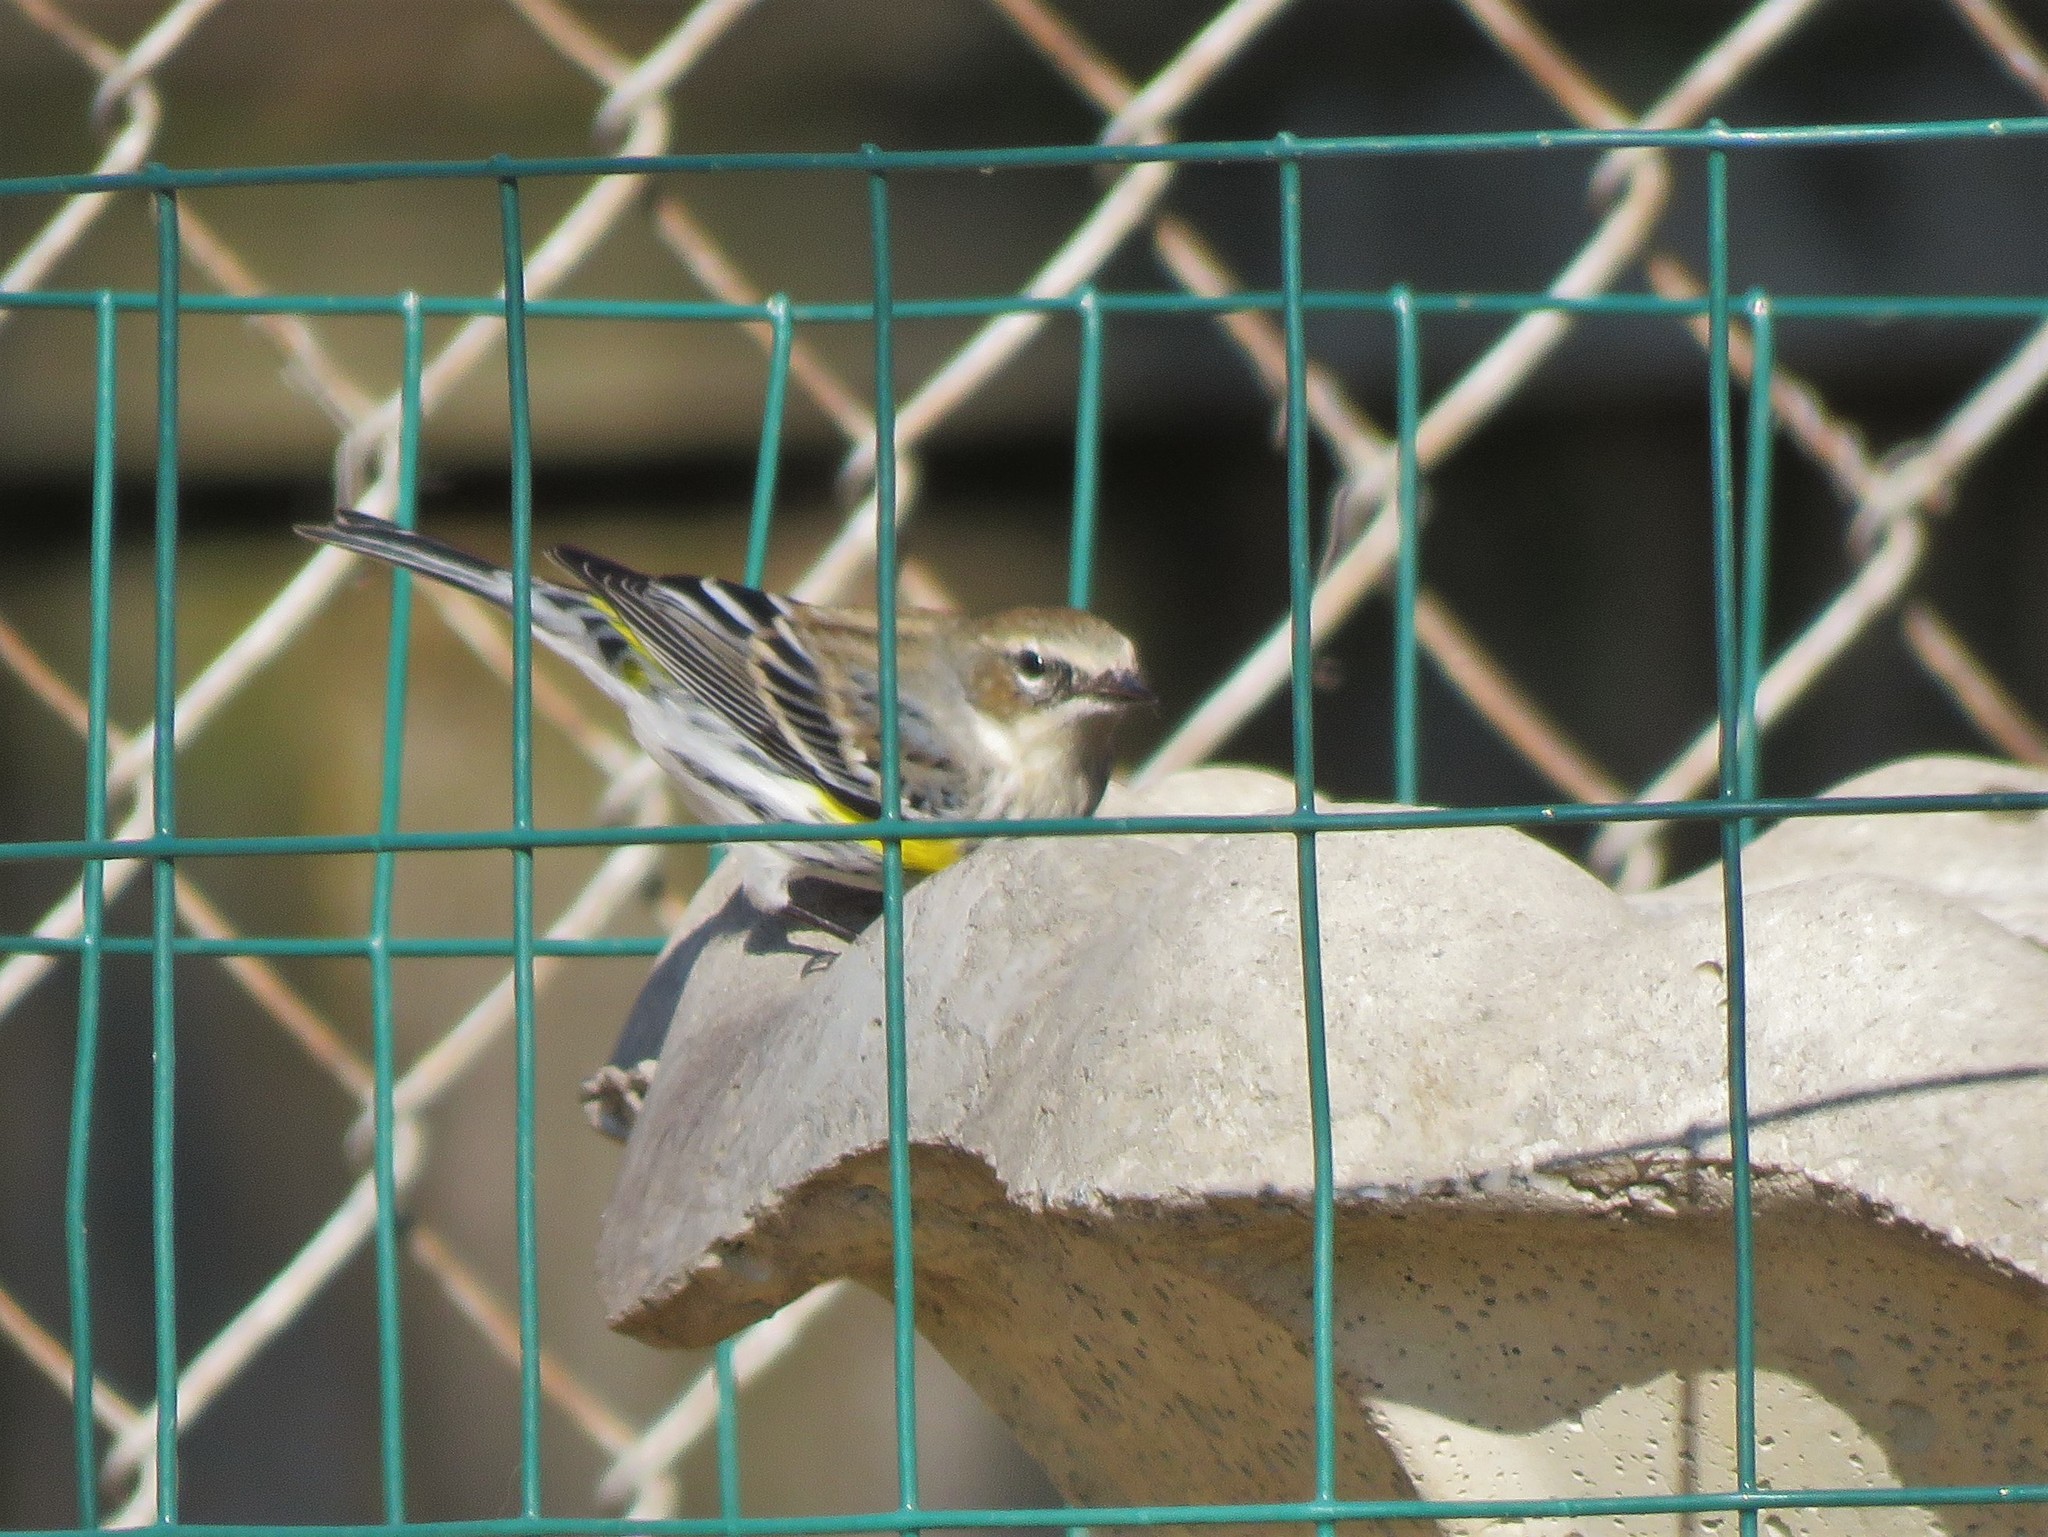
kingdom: Animalia
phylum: Chordata
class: Aves
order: Passeriformes
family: Parulidae
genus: Setophaga
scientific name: Setophaga coronata
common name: Myrtle warbler
